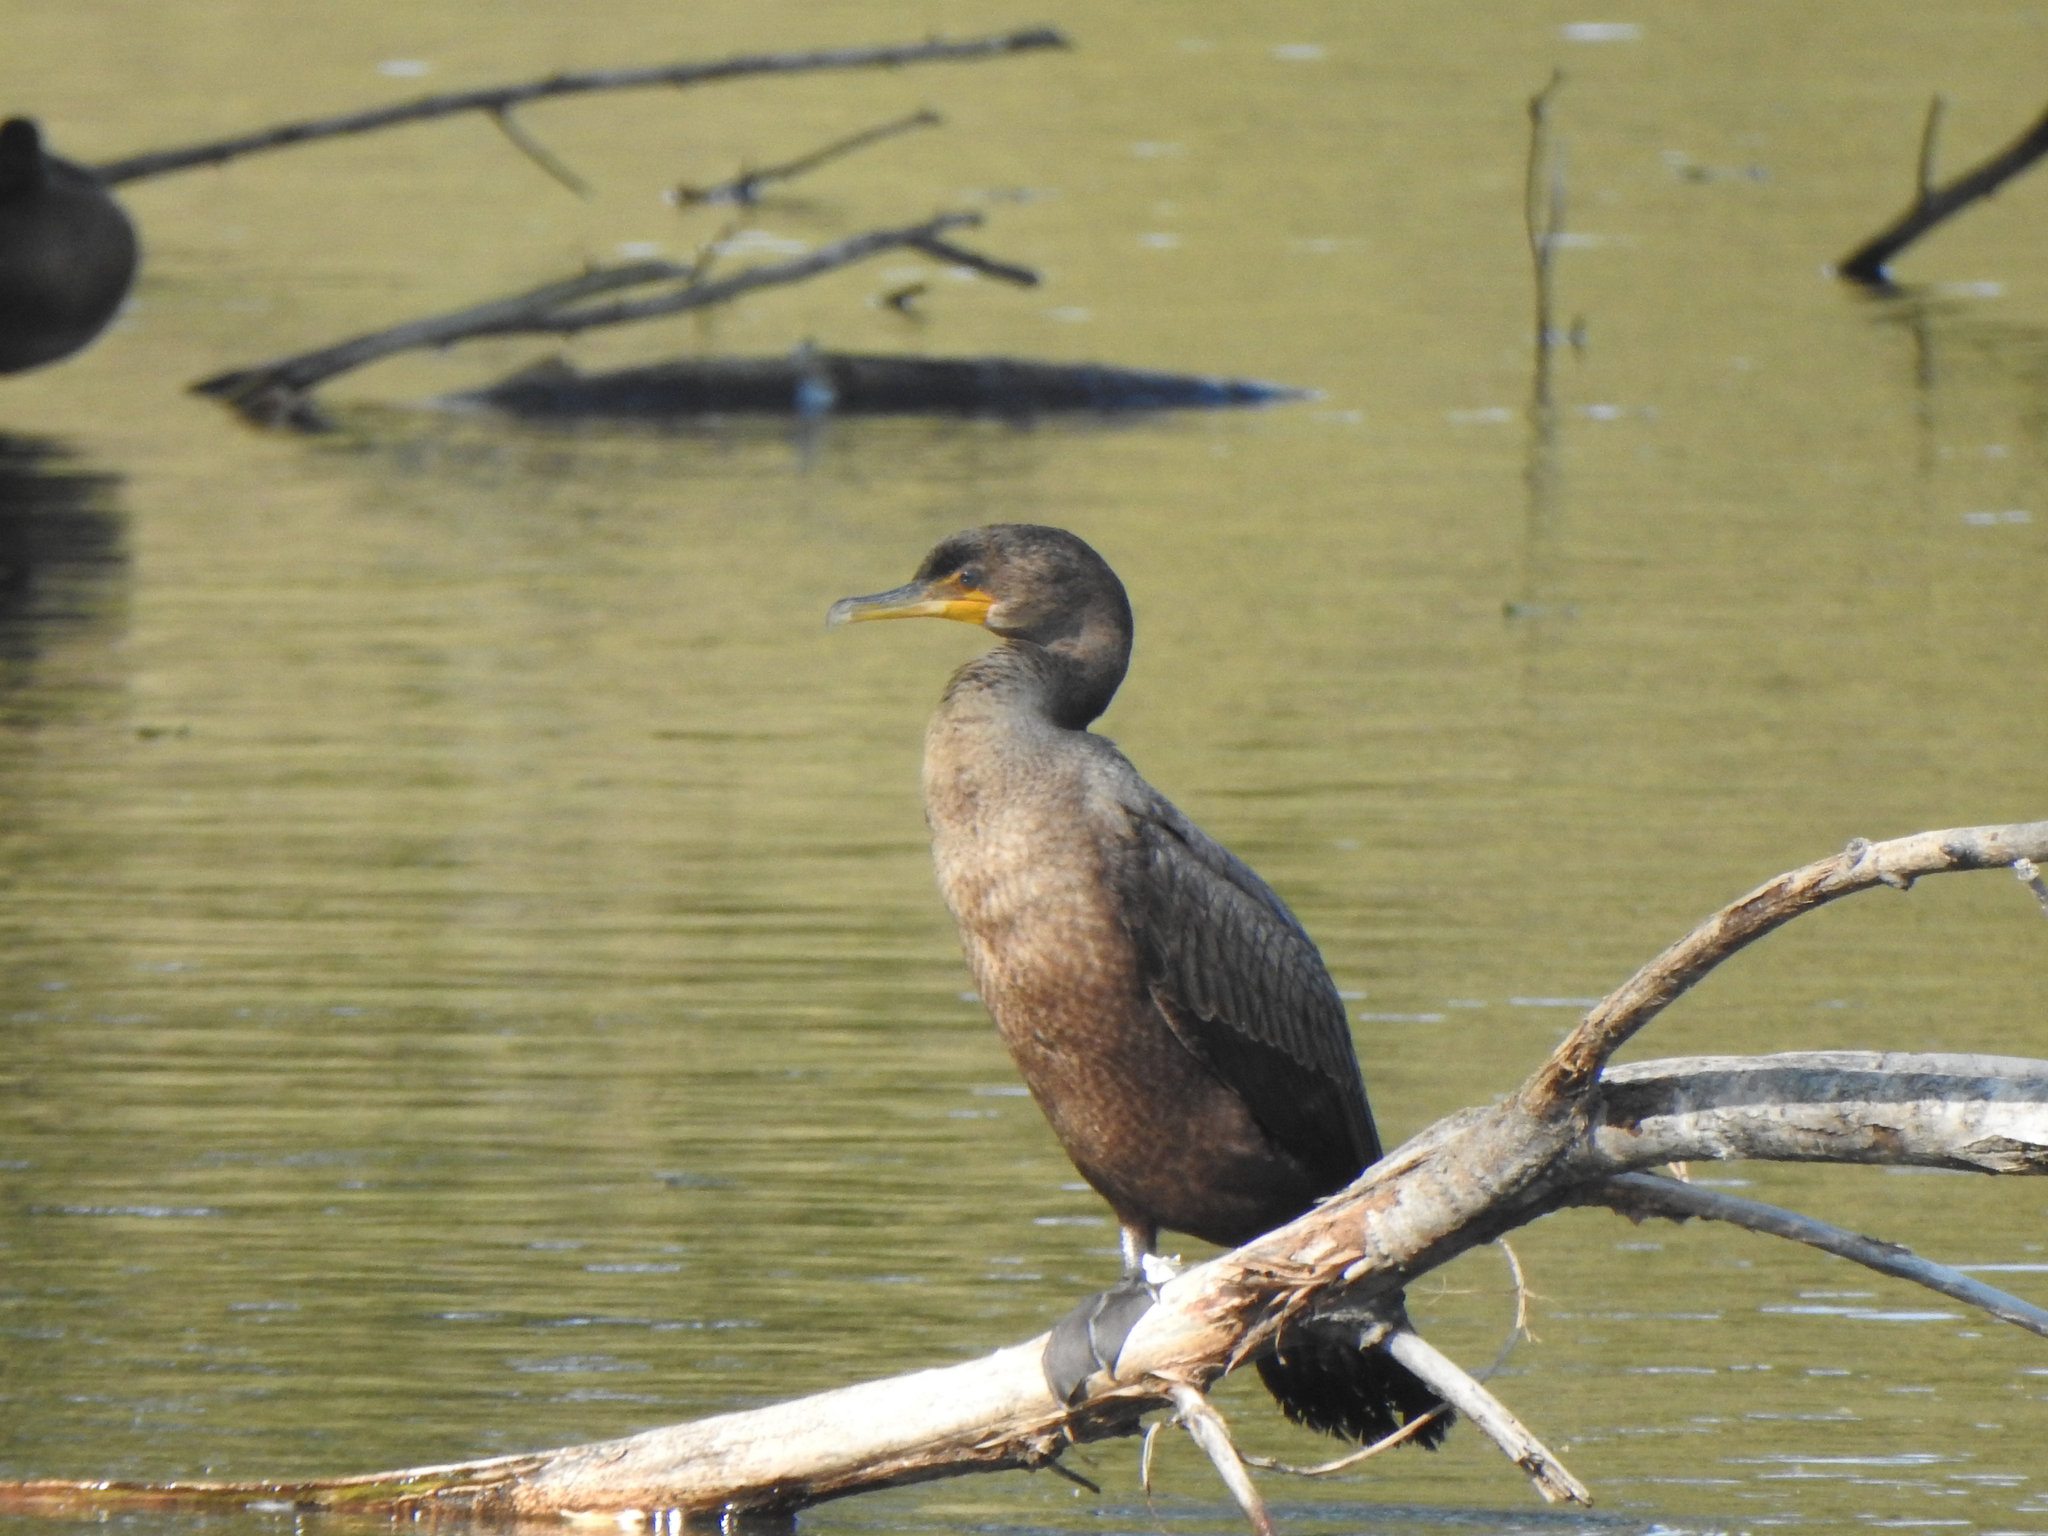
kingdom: Animalia
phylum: Chordata
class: Aves
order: Suliformes
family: Phalacrocoracidae
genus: Phalacrocorax
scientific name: Phalacrocorax auritus
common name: Double-crested cormorant
